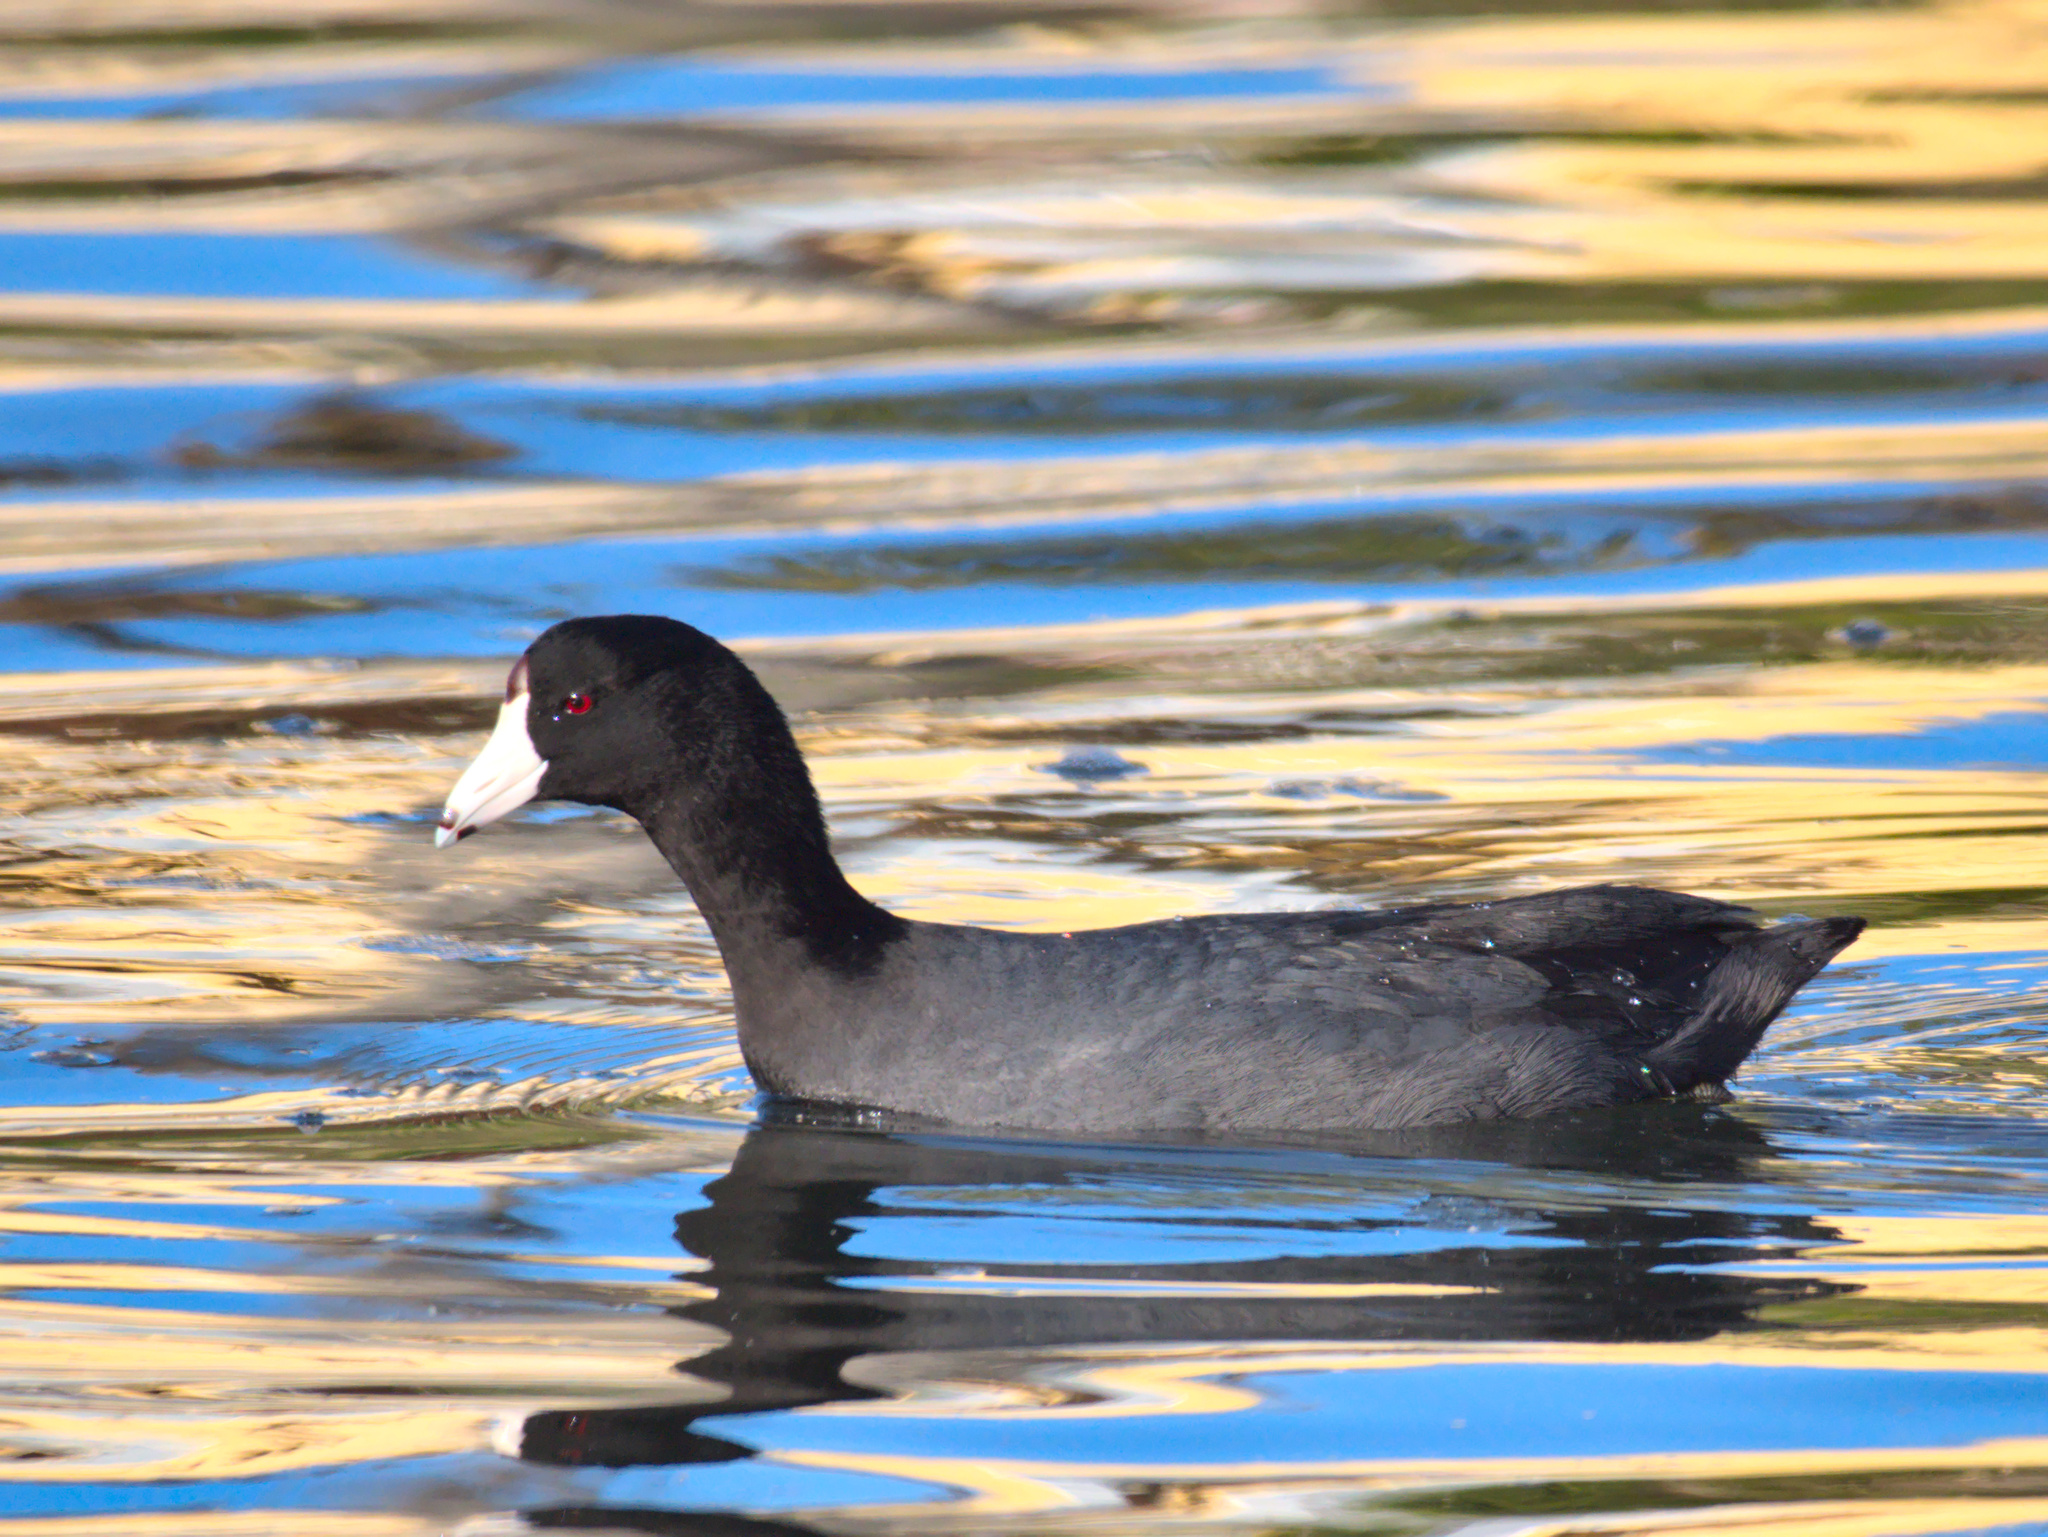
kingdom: Animalia
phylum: Chordata
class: Aves
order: Gruiformes
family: Rallidae
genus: Fulica
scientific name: Fulica americana
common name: American coot
